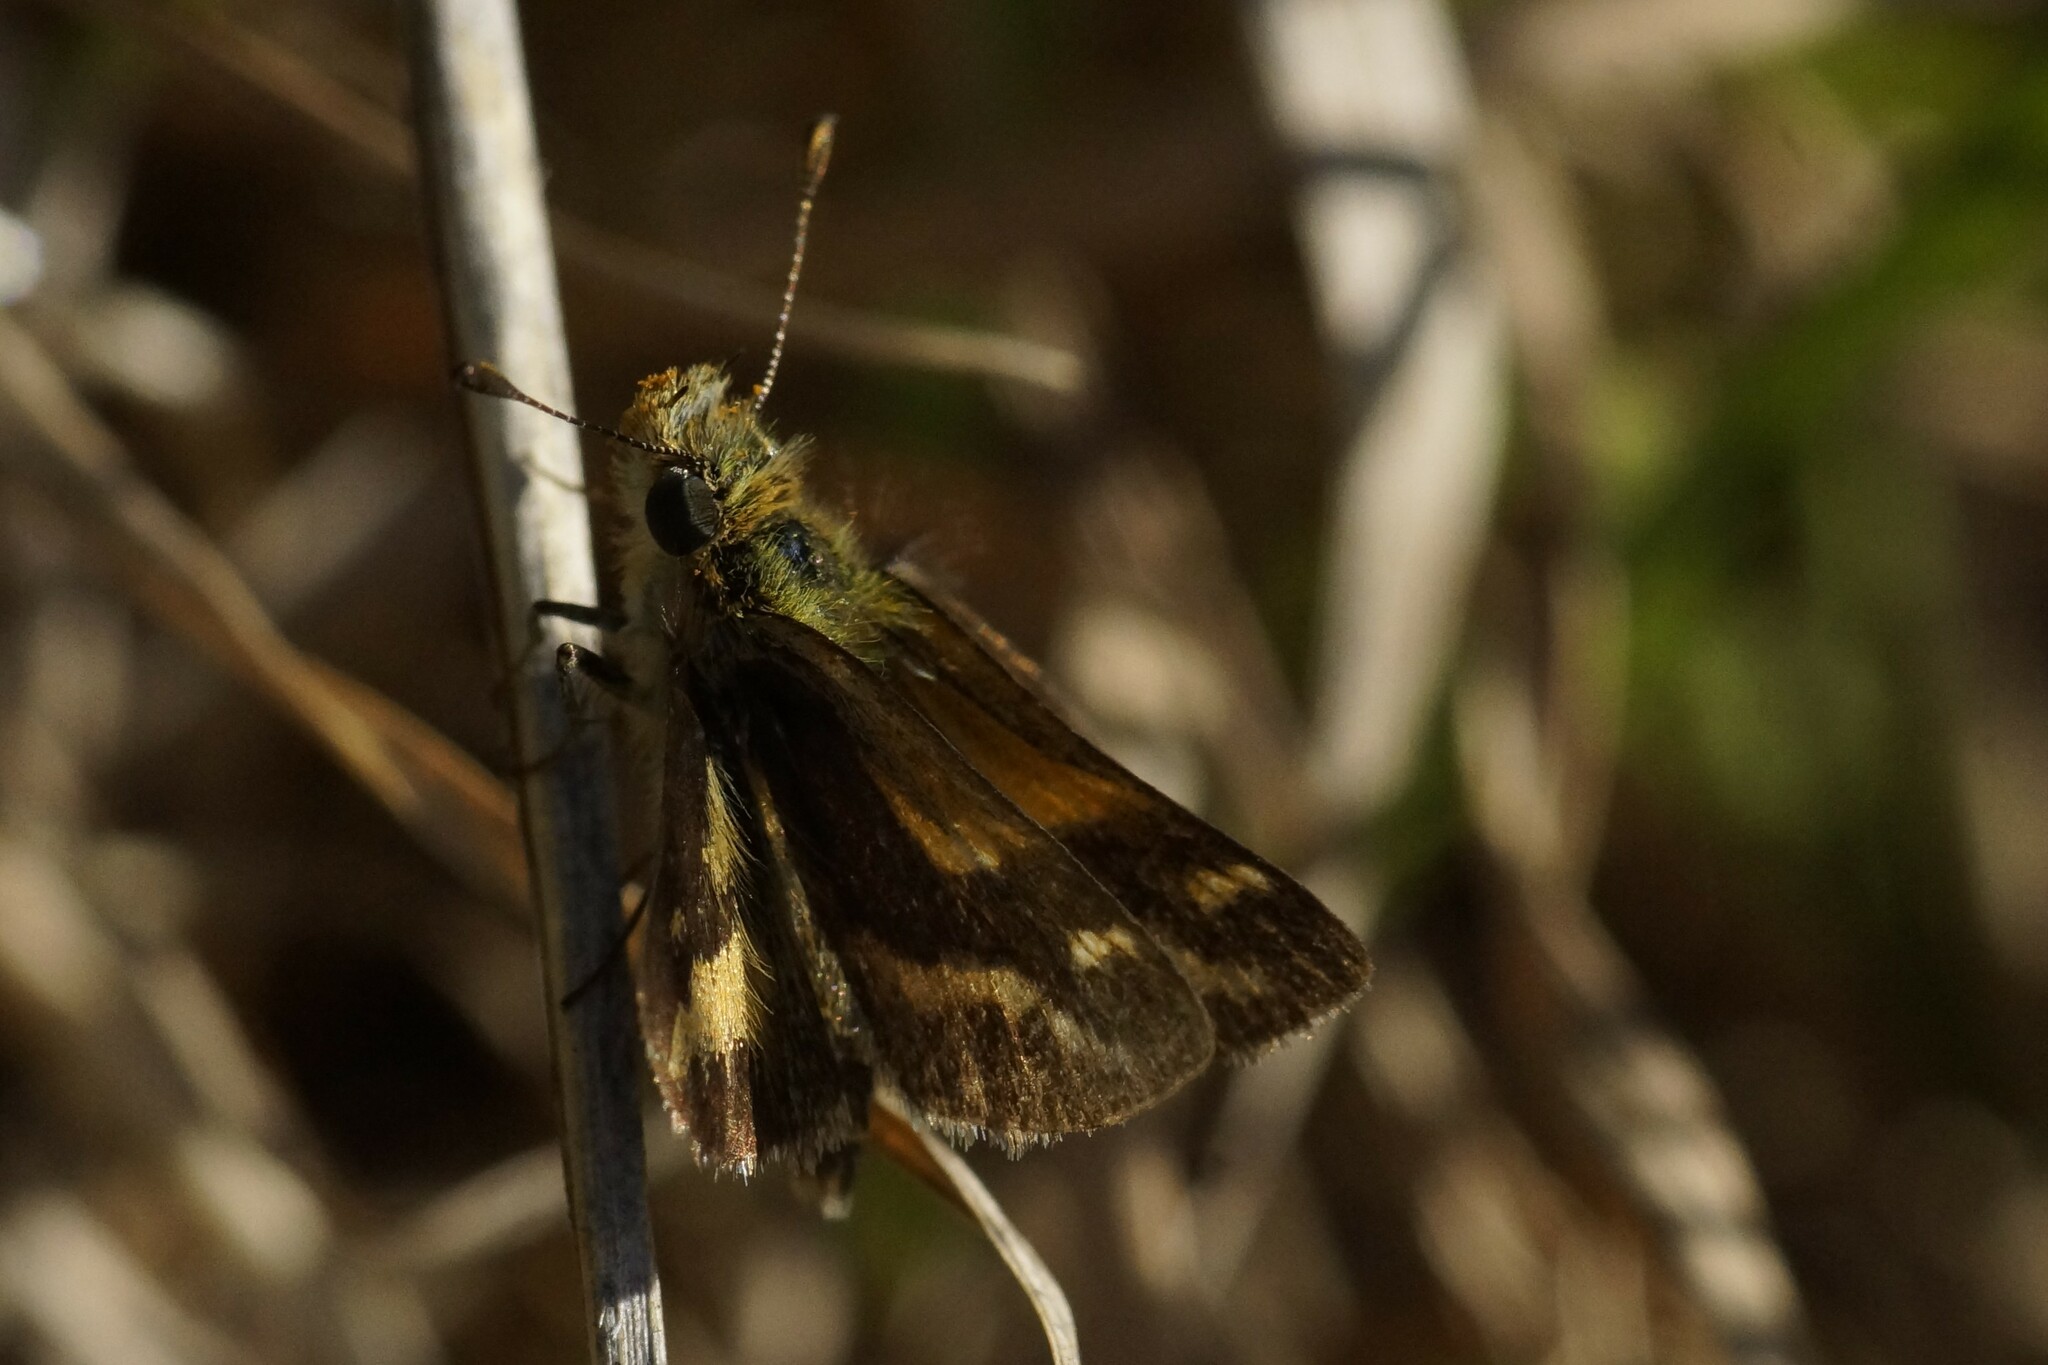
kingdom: Animalia
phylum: Arthropoda
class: Insecta
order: Lepidoptera
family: Hesperiidae
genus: Taractrocera
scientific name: Taractrocera papyria
